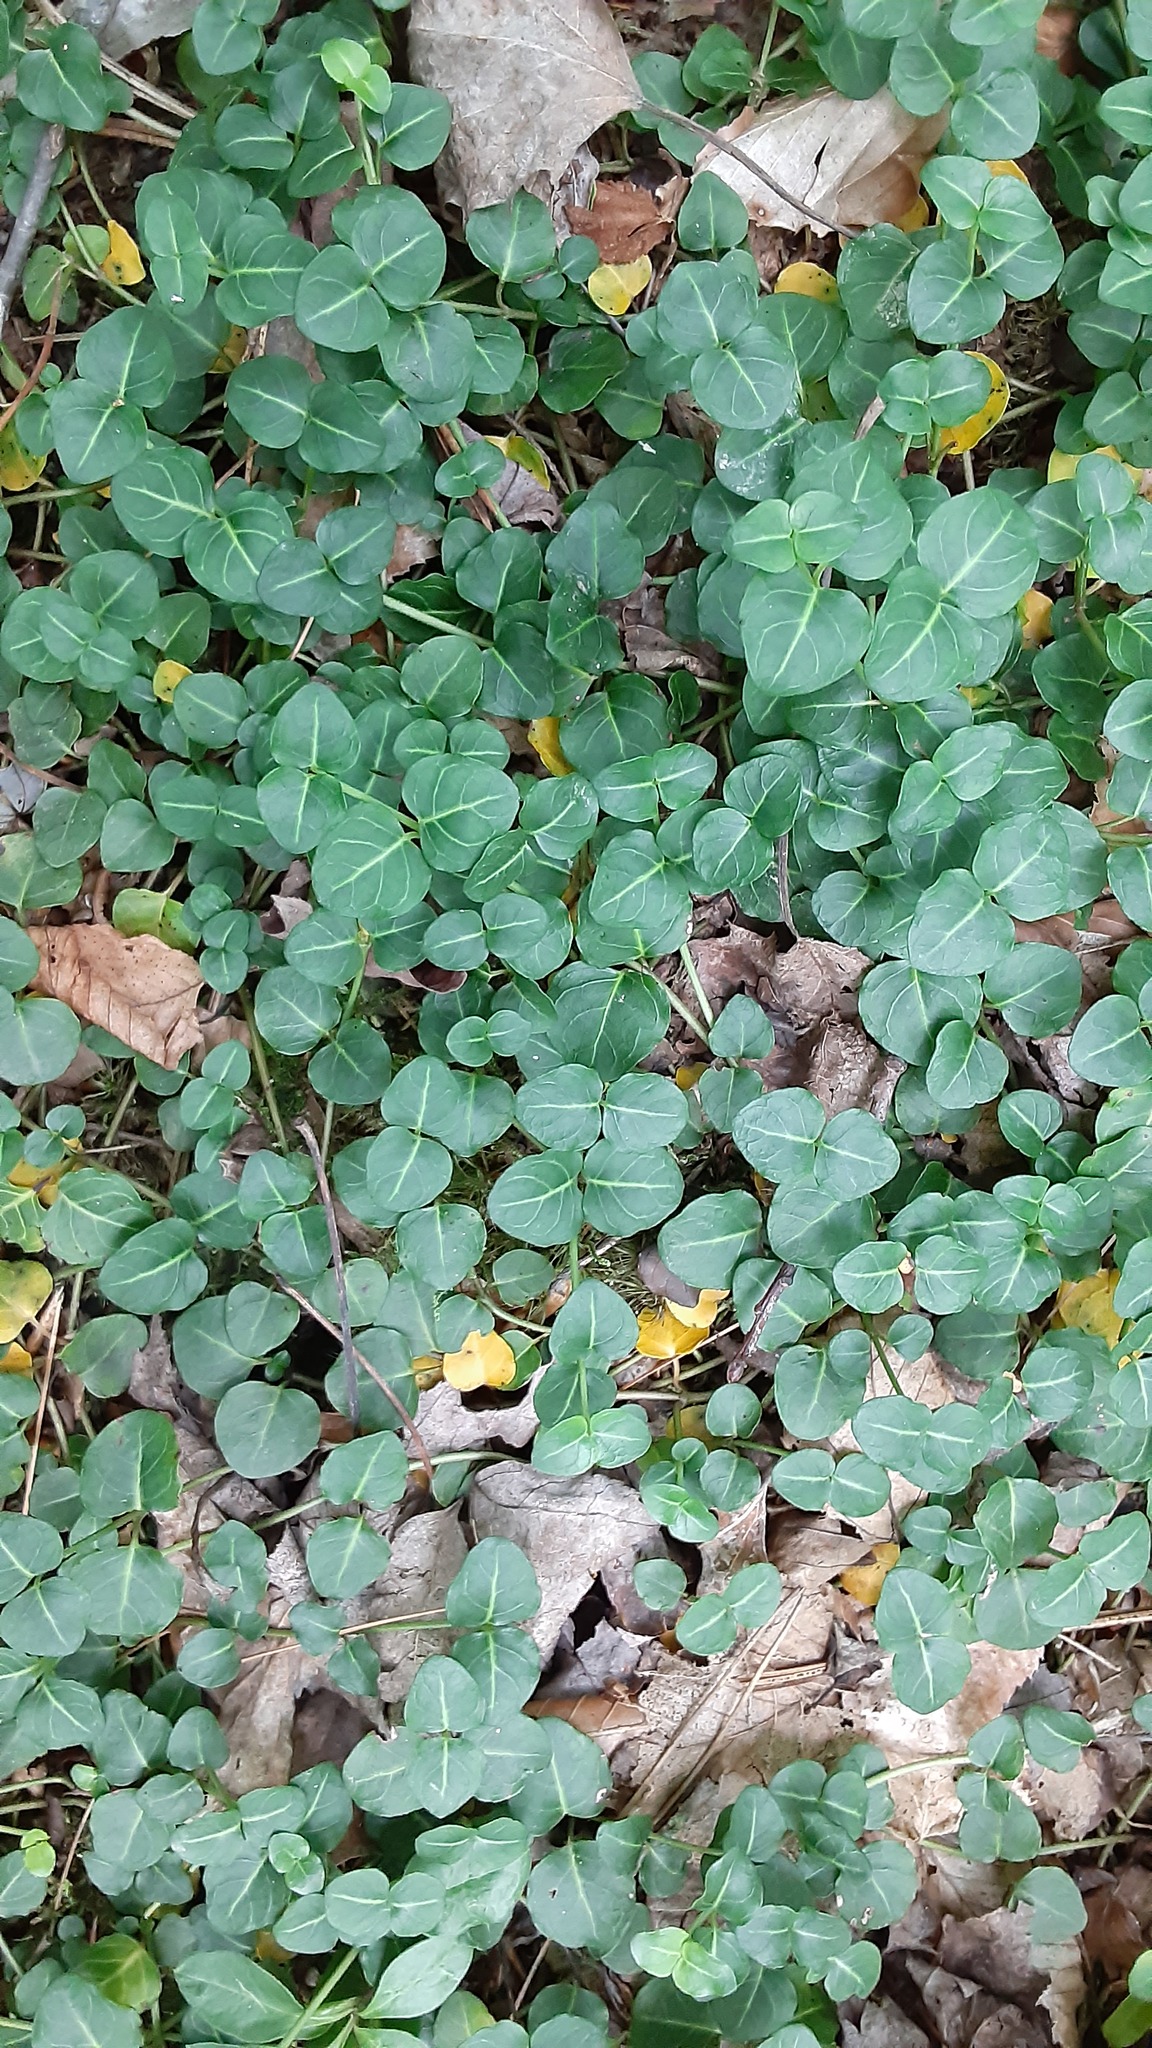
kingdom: Plantae
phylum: Tracheophyta
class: Magnoliopsida
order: Gentianales
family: Rubiaceae
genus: Mitchella
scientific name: Mitchella repens
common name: Partridge-berry
